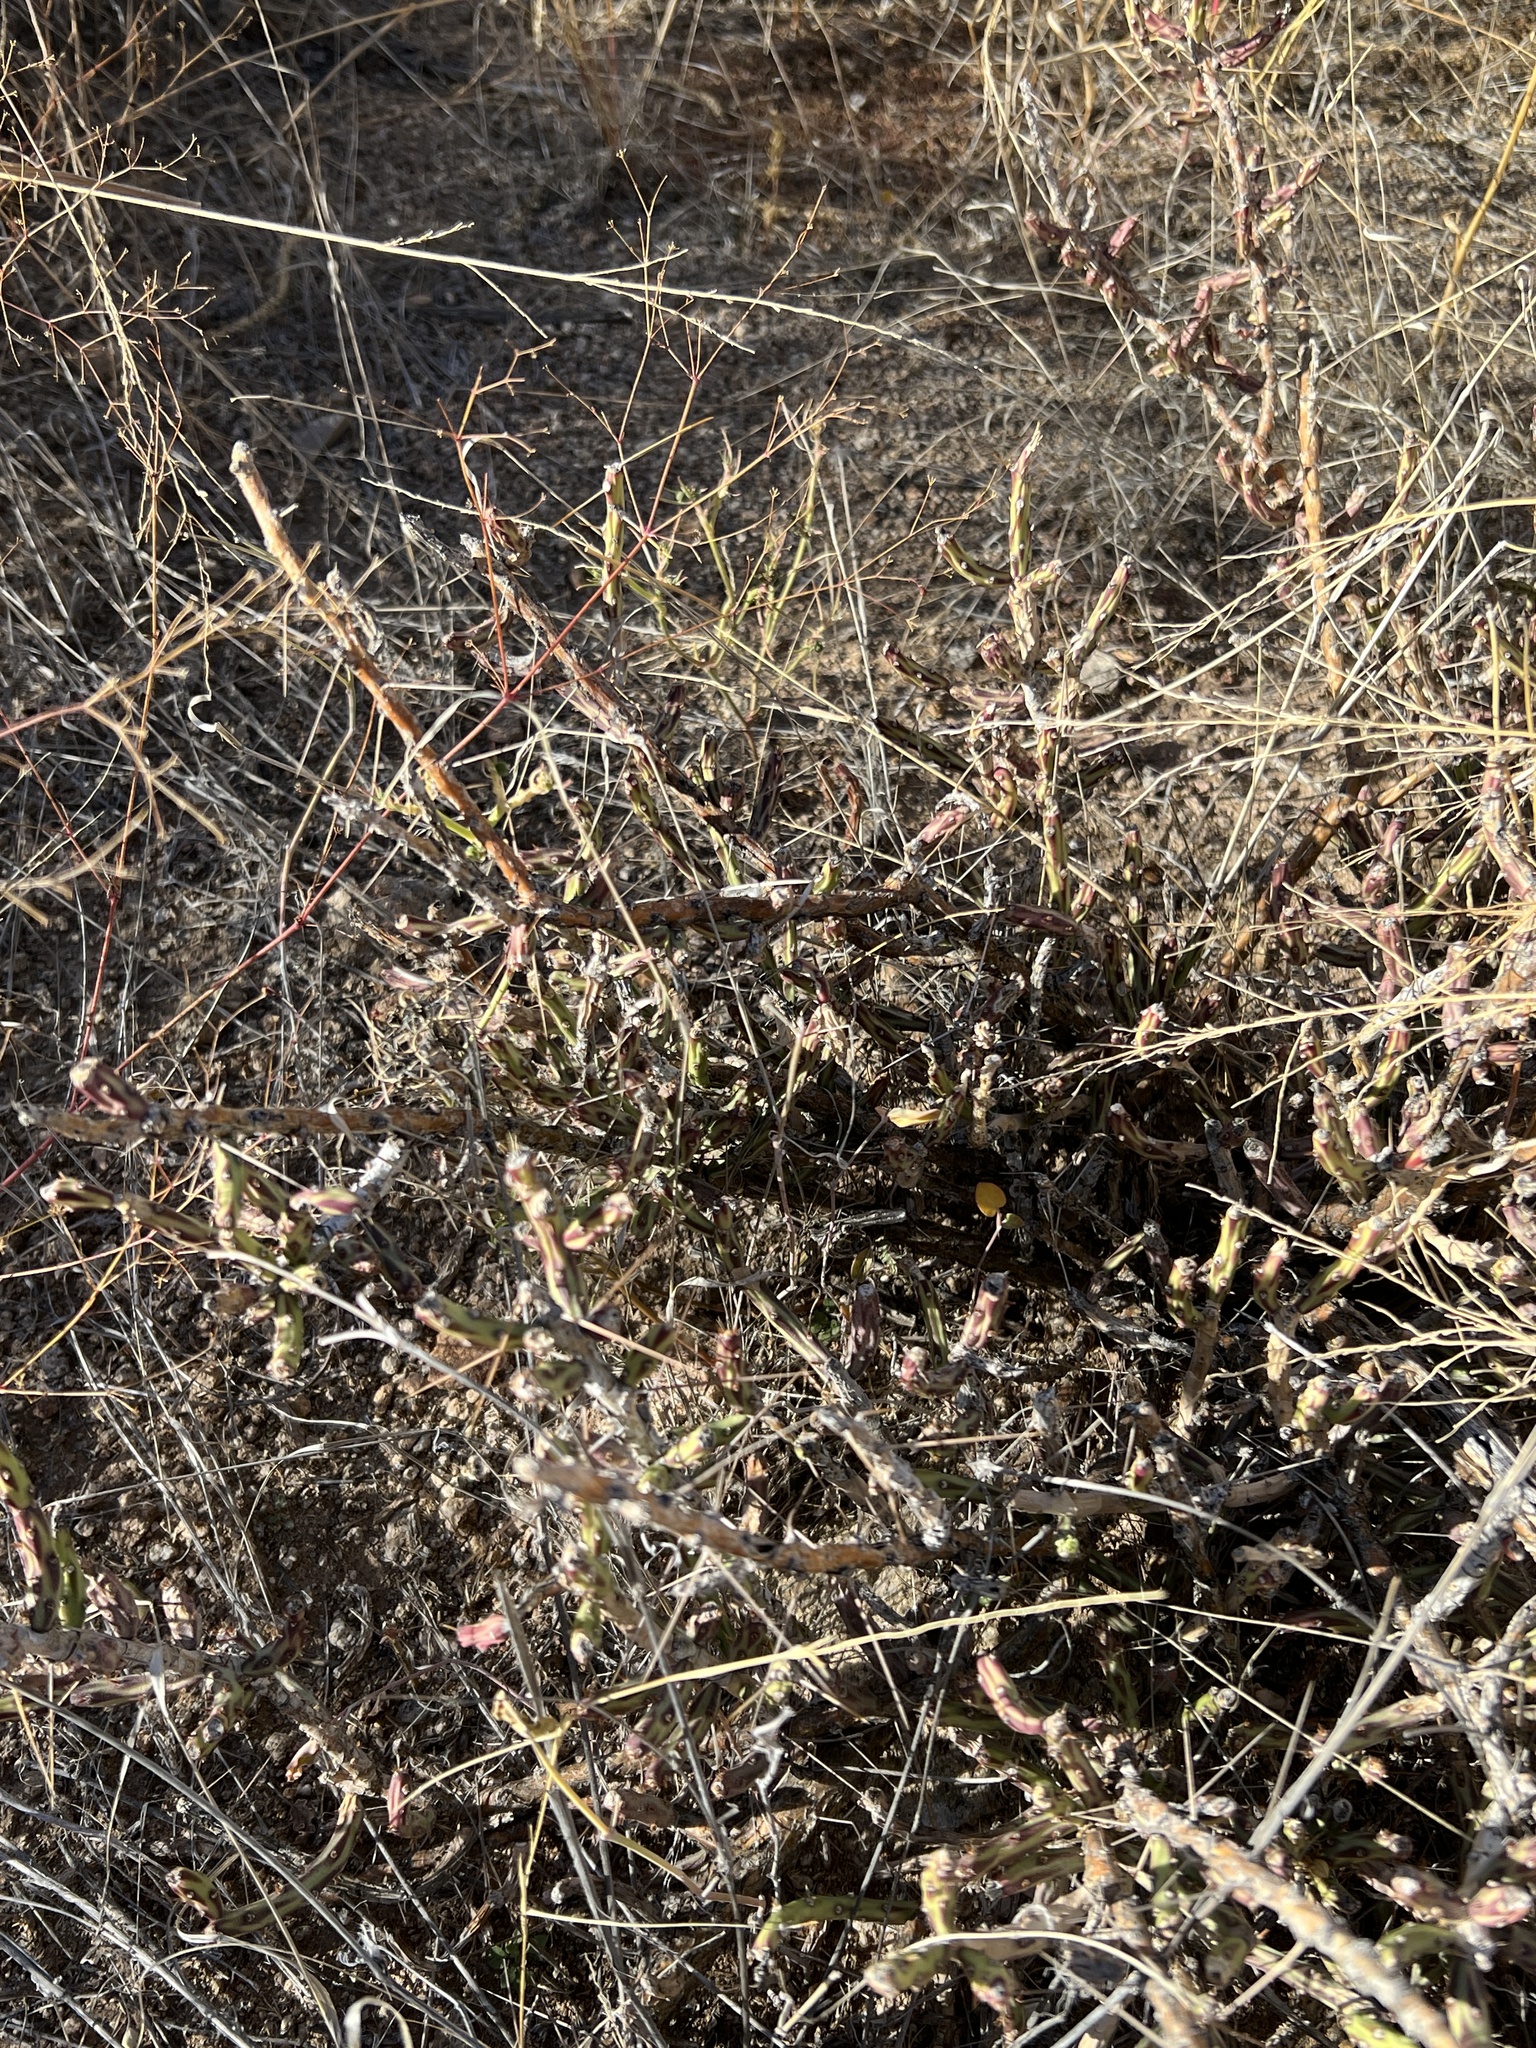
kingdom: Plantae
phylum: Tracheophyta
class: Magnoliopsida
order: Caryophyllales
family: Cactaceae
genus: Cylindropuntia
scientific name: Cylindropuntia leptocaulis
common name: Christmas cactus
